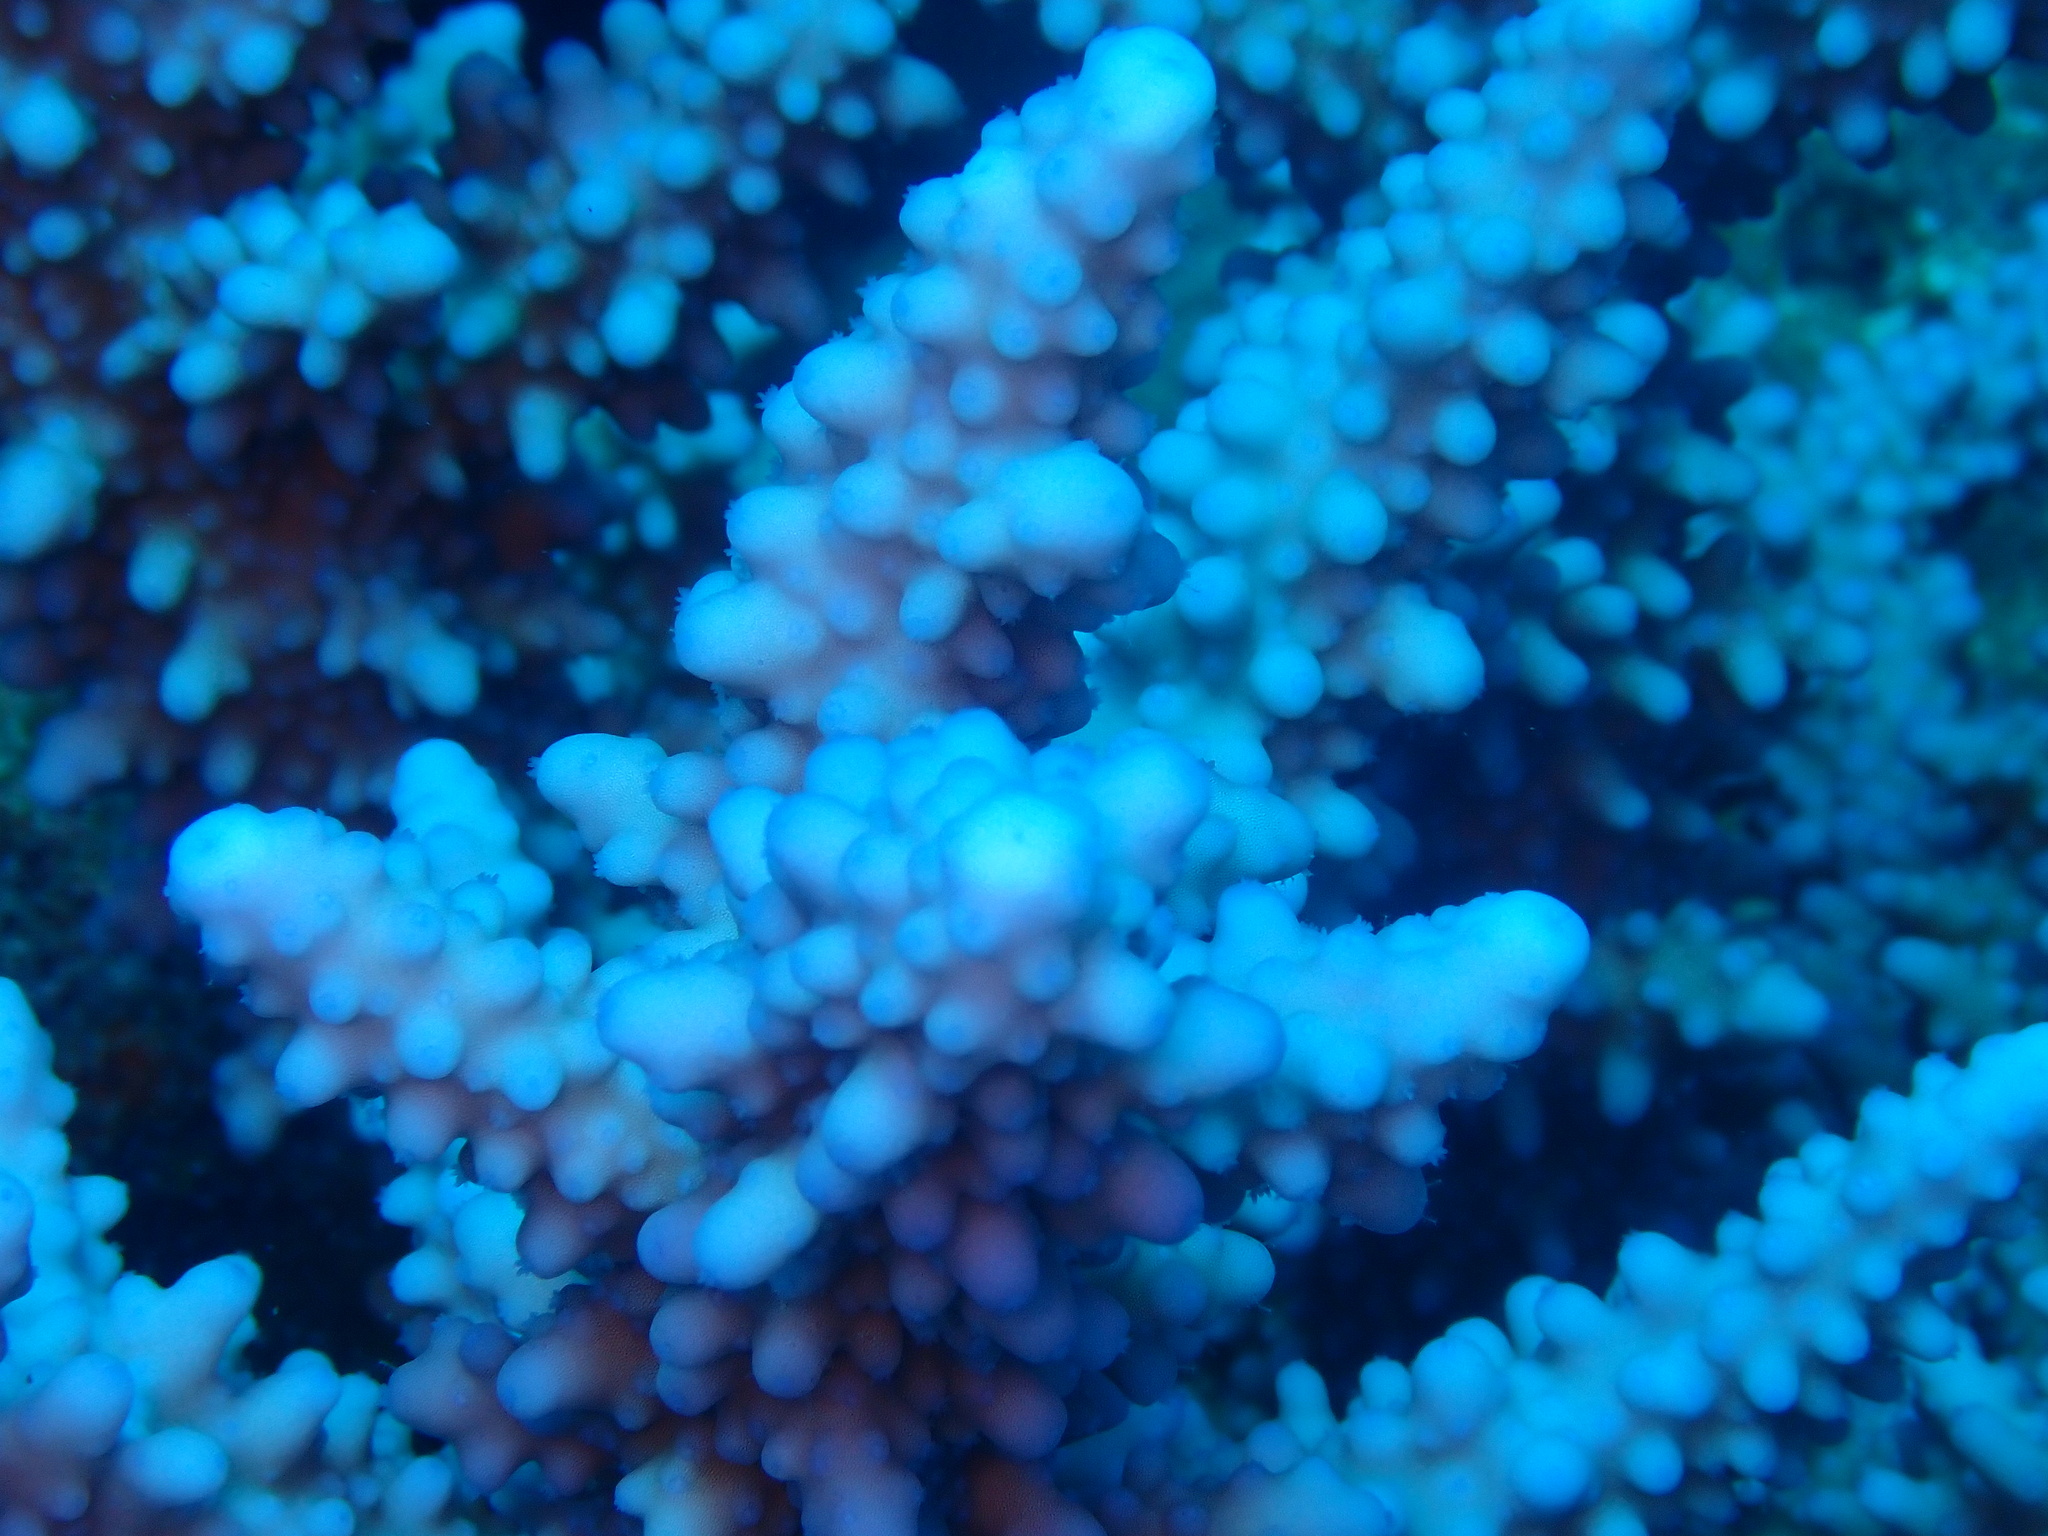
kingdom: Animalia
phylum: Cnidaria
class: Anthozoa
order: Scleractinia
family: Acroporidae
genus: Acropora
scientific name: Acropora hemprichii
